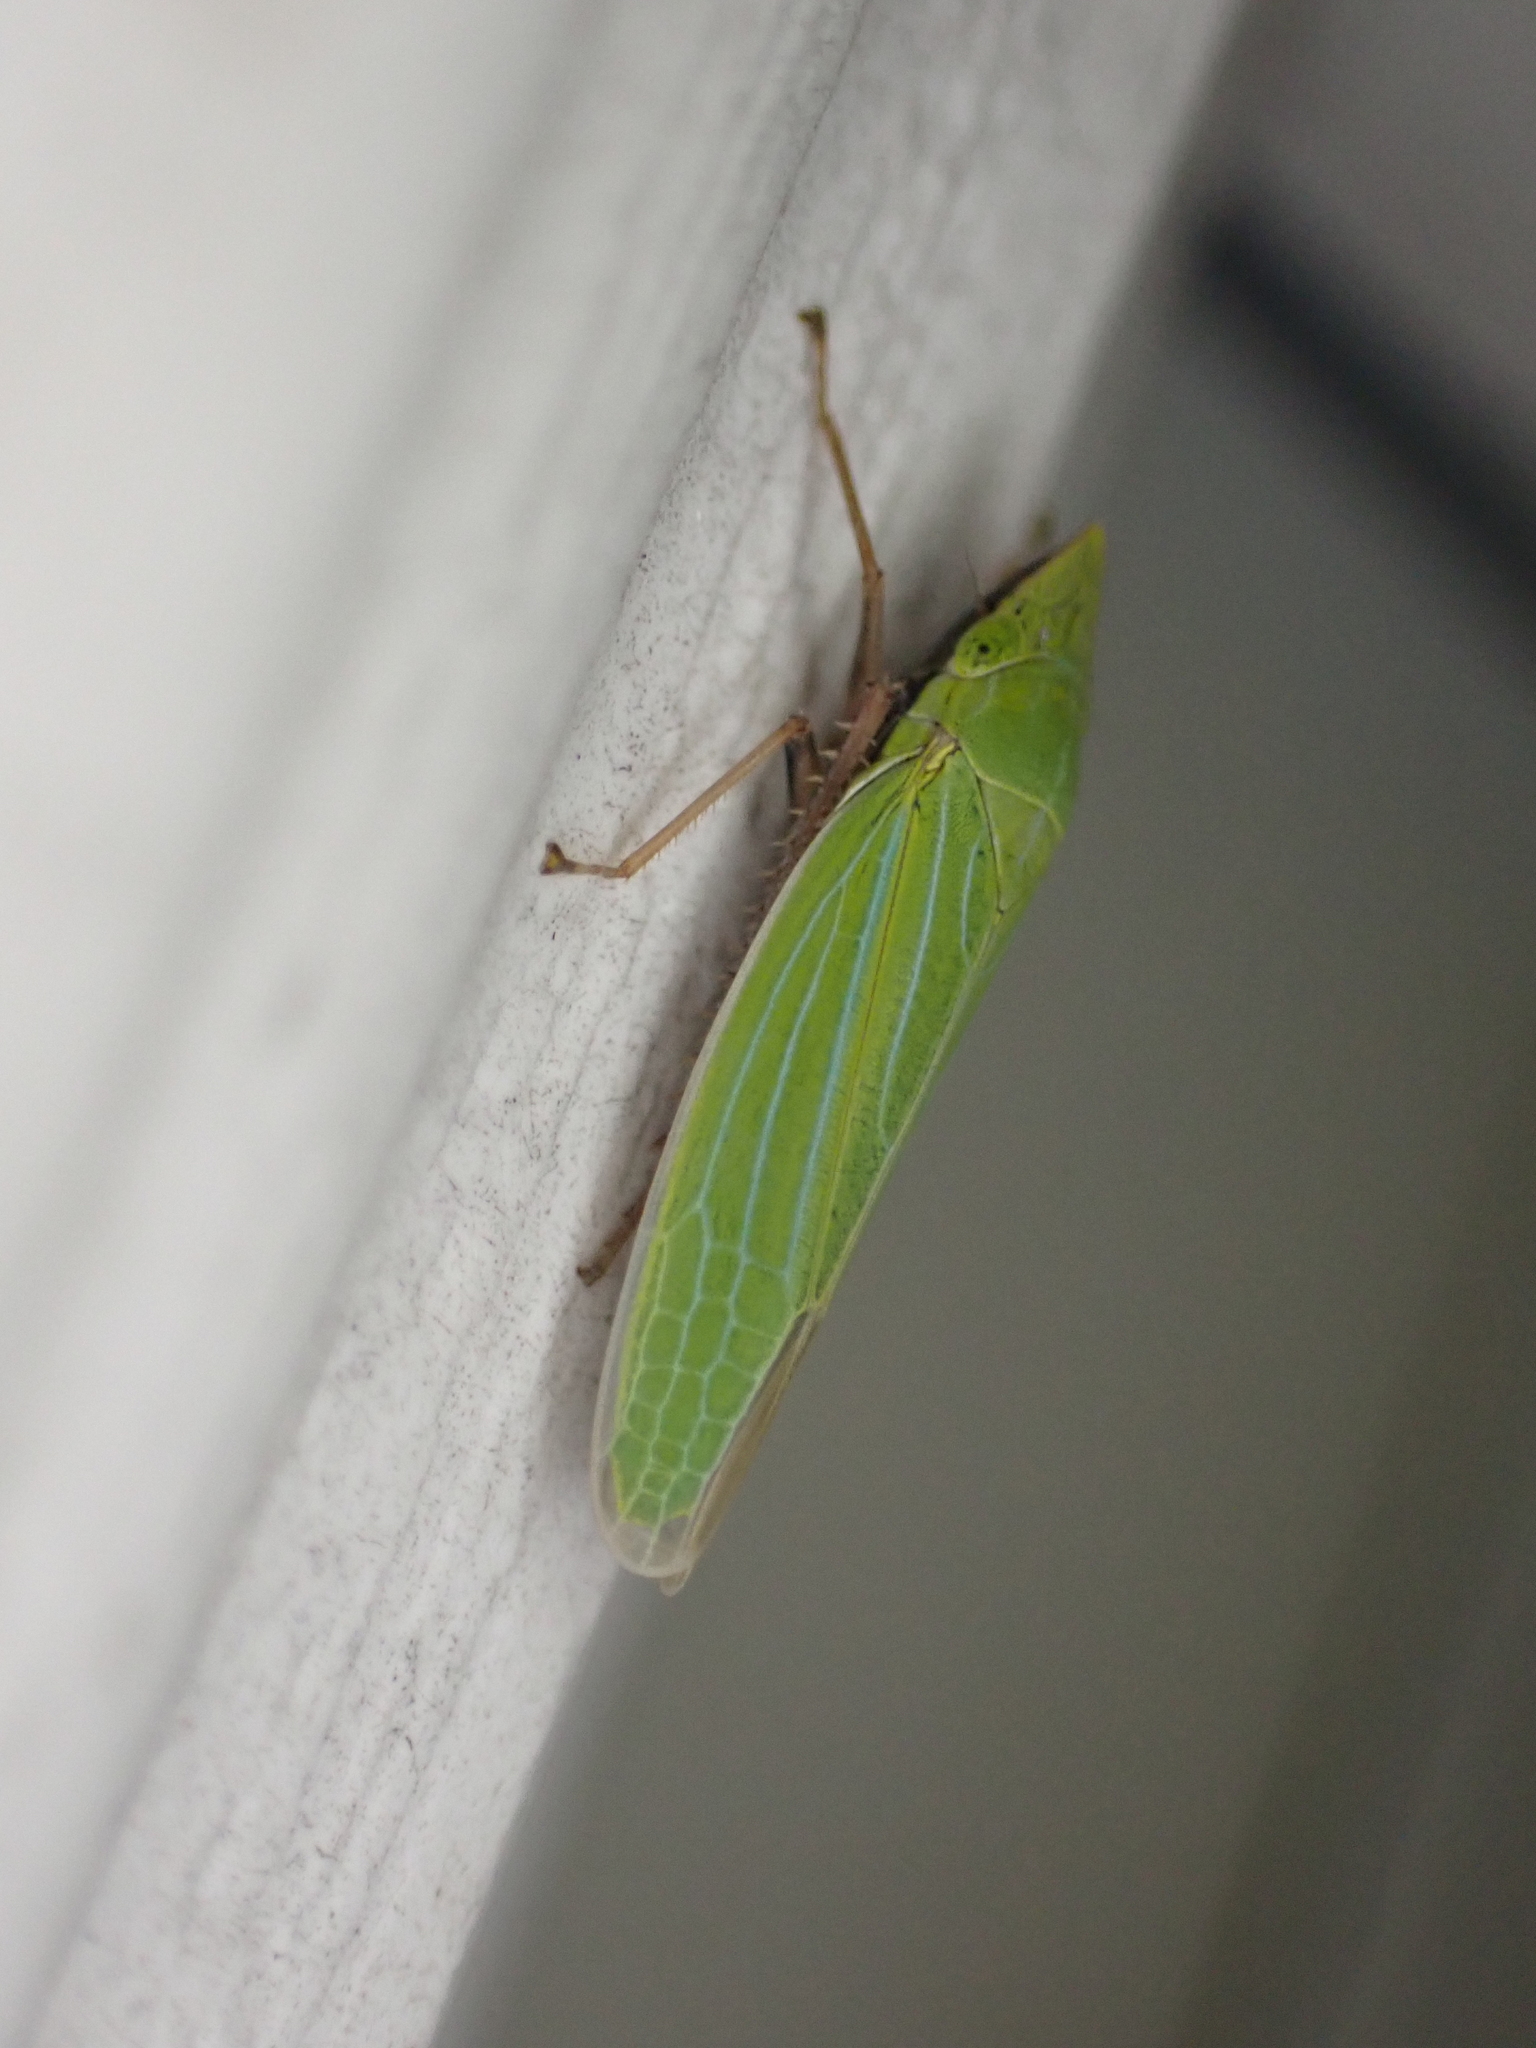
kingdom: Animalia
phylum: Arthropoda
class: Insecta
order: Hemiptera
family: Cicadellidae
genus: Draeculacephala
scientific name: Draeculacephala robinsoni
